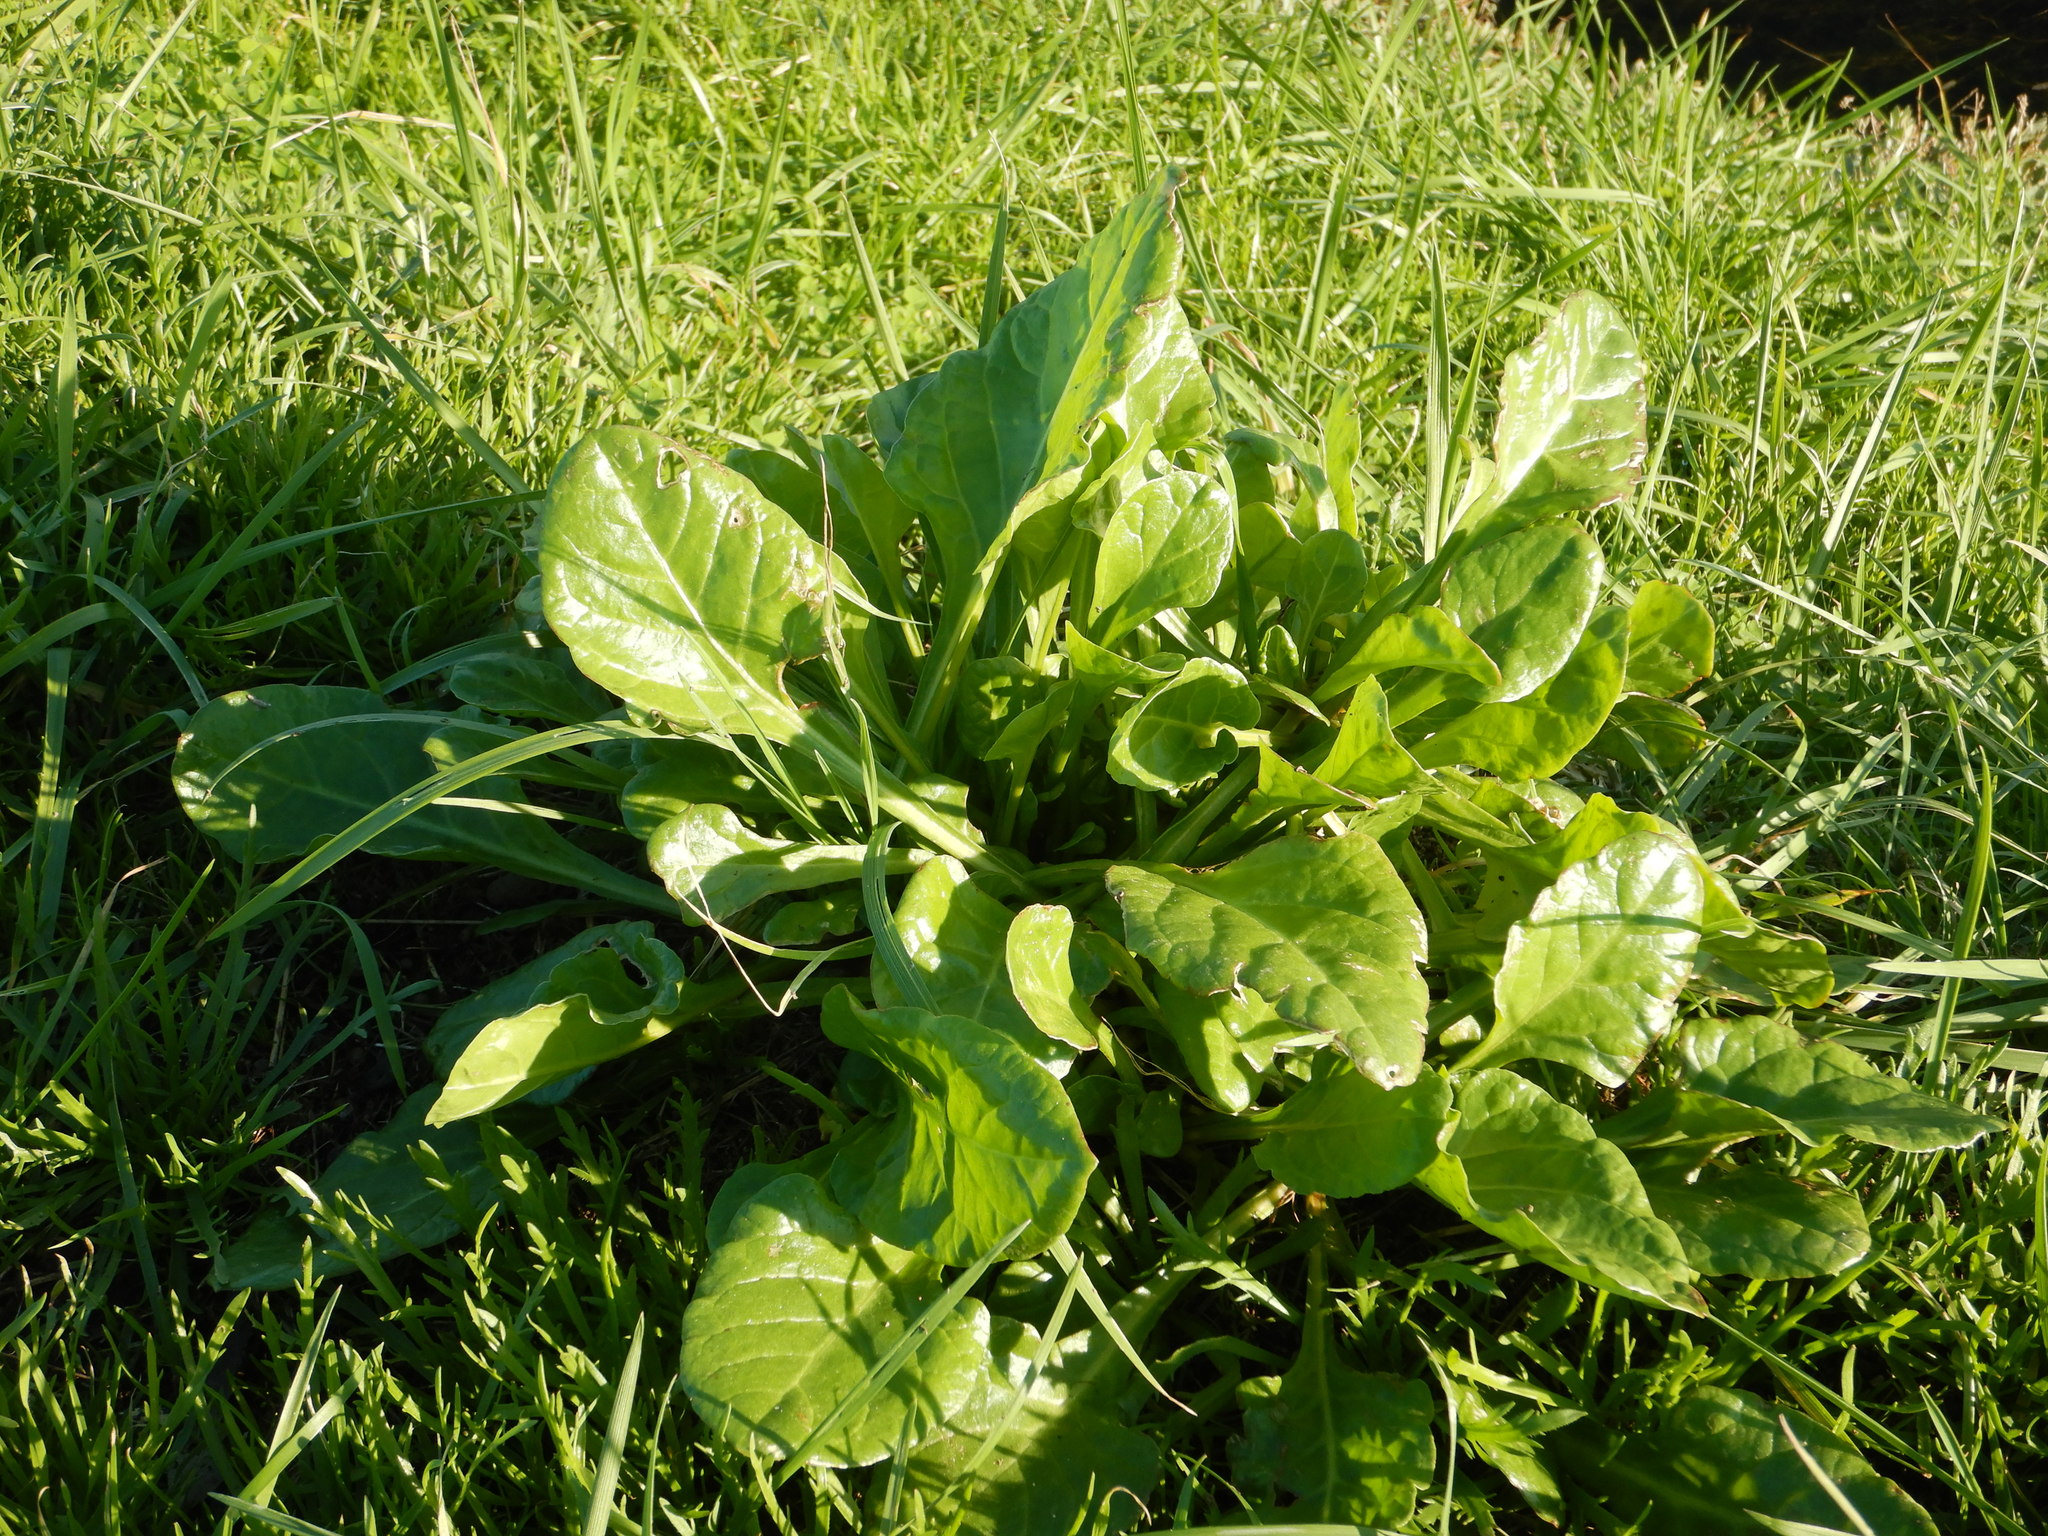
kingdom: Plantae
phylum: Tracheophyta
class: Magnoliopsida
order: Caryophyllales
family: Amaranthaceae
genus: Beta
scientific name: Beta vulgaris
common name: Beet
